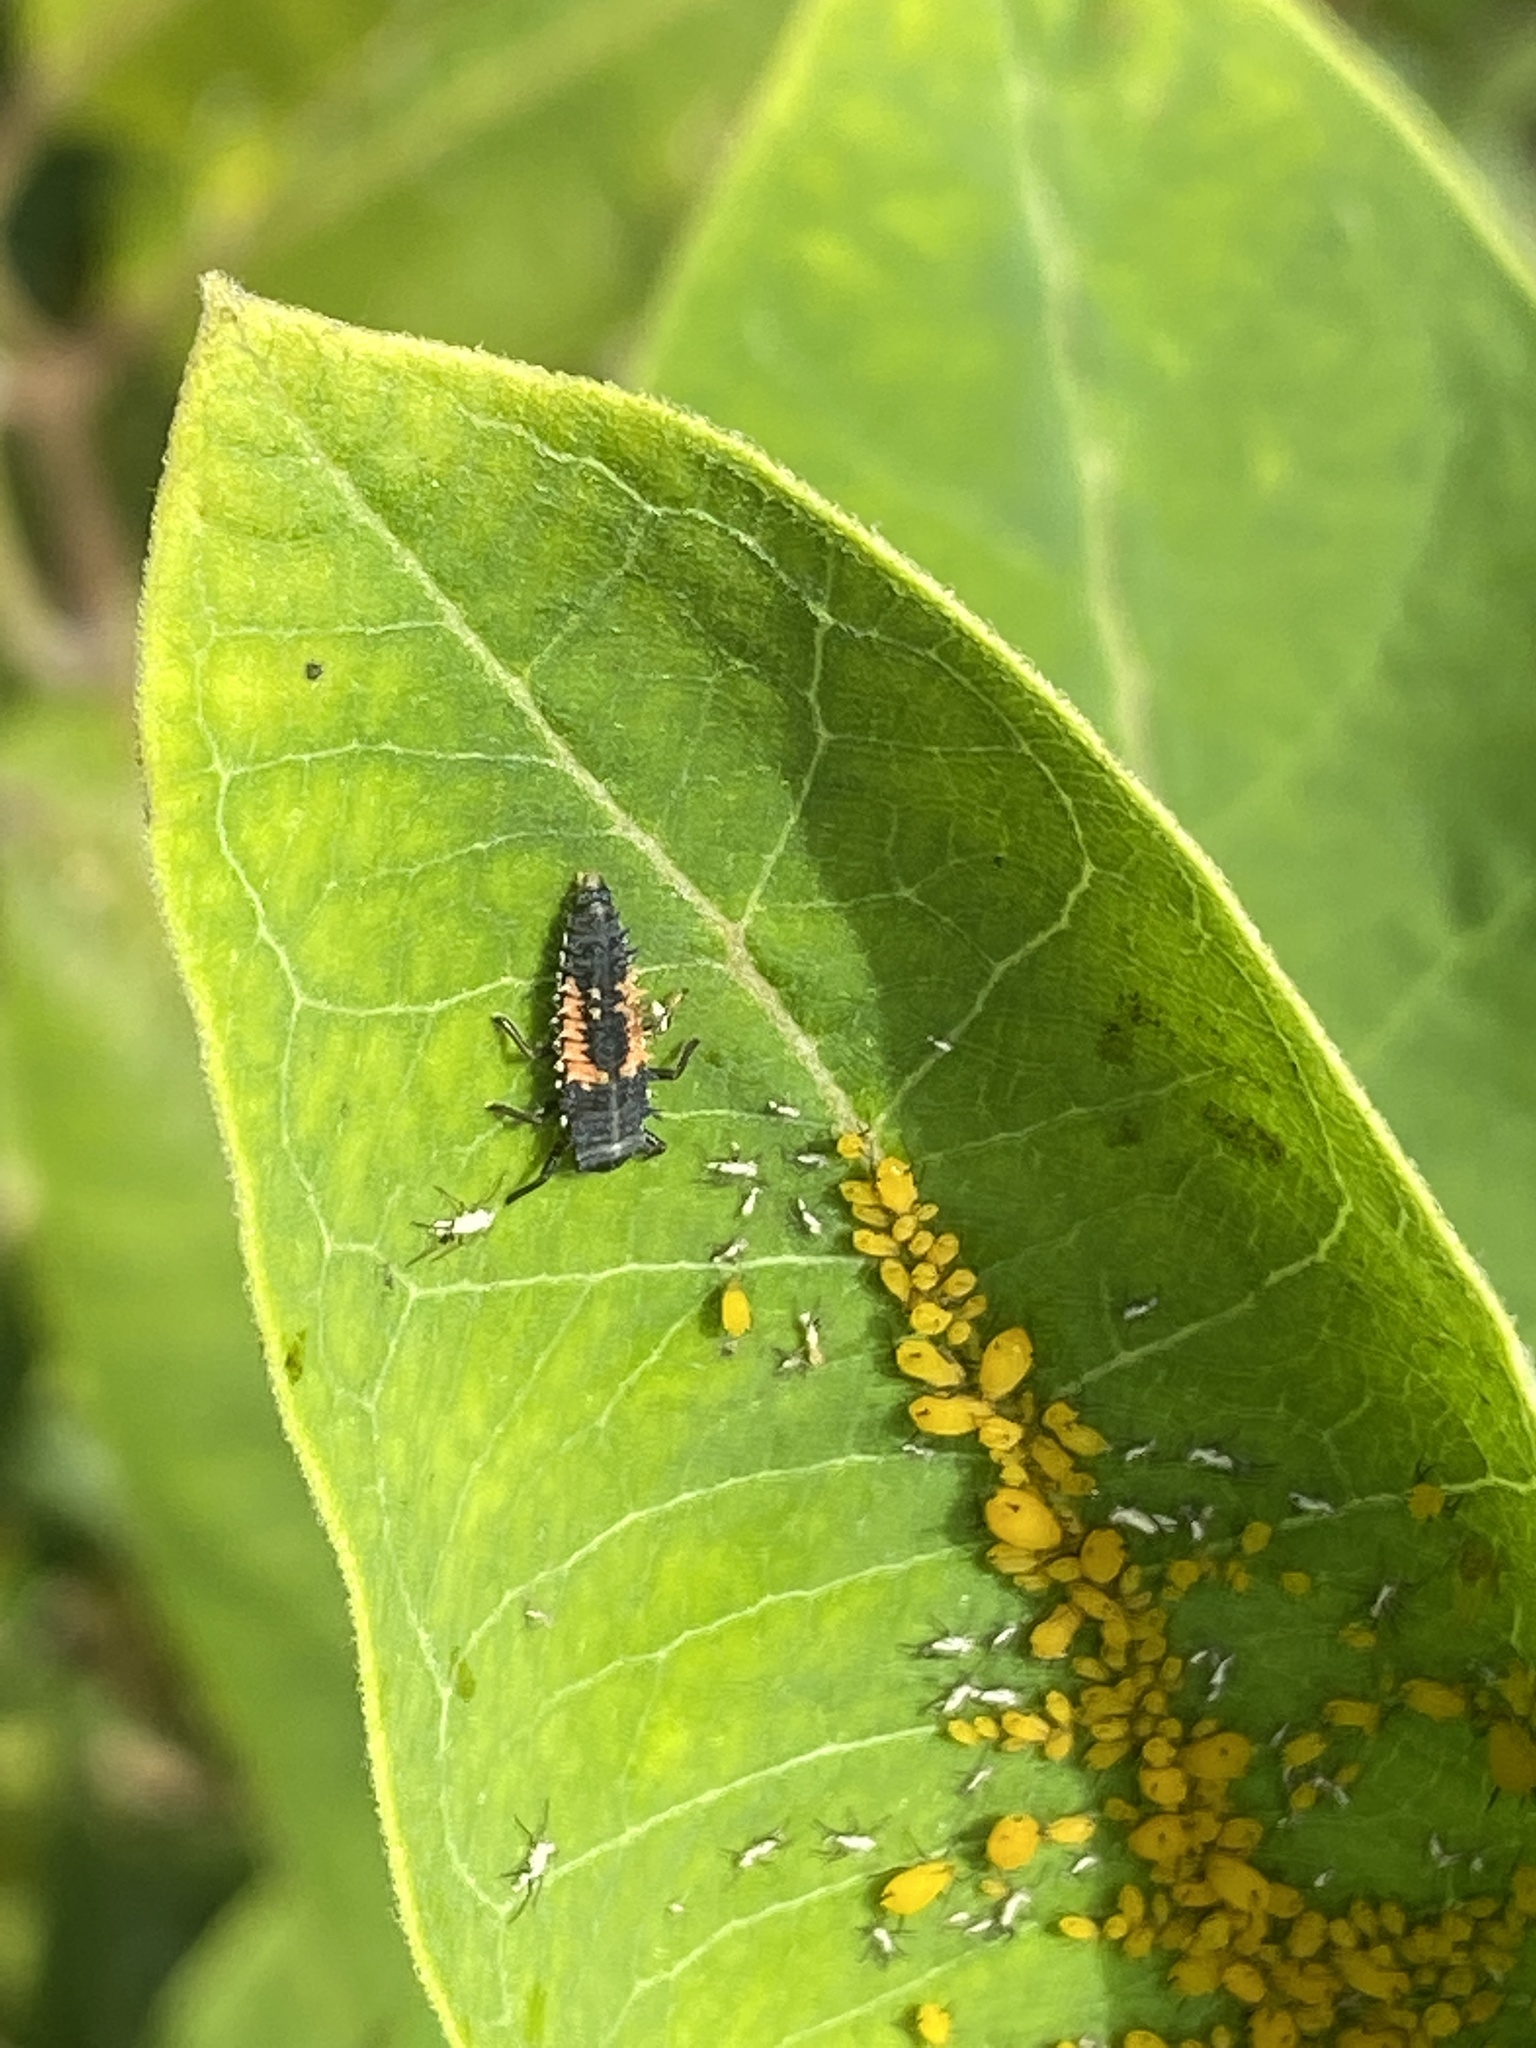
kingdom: Animalia
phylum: Arthropoda
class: Insecta
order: Coleoptera
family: Coccinellidae
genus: Harmonia
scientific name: Harmonia axyridis
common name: Harlequin ladybird
